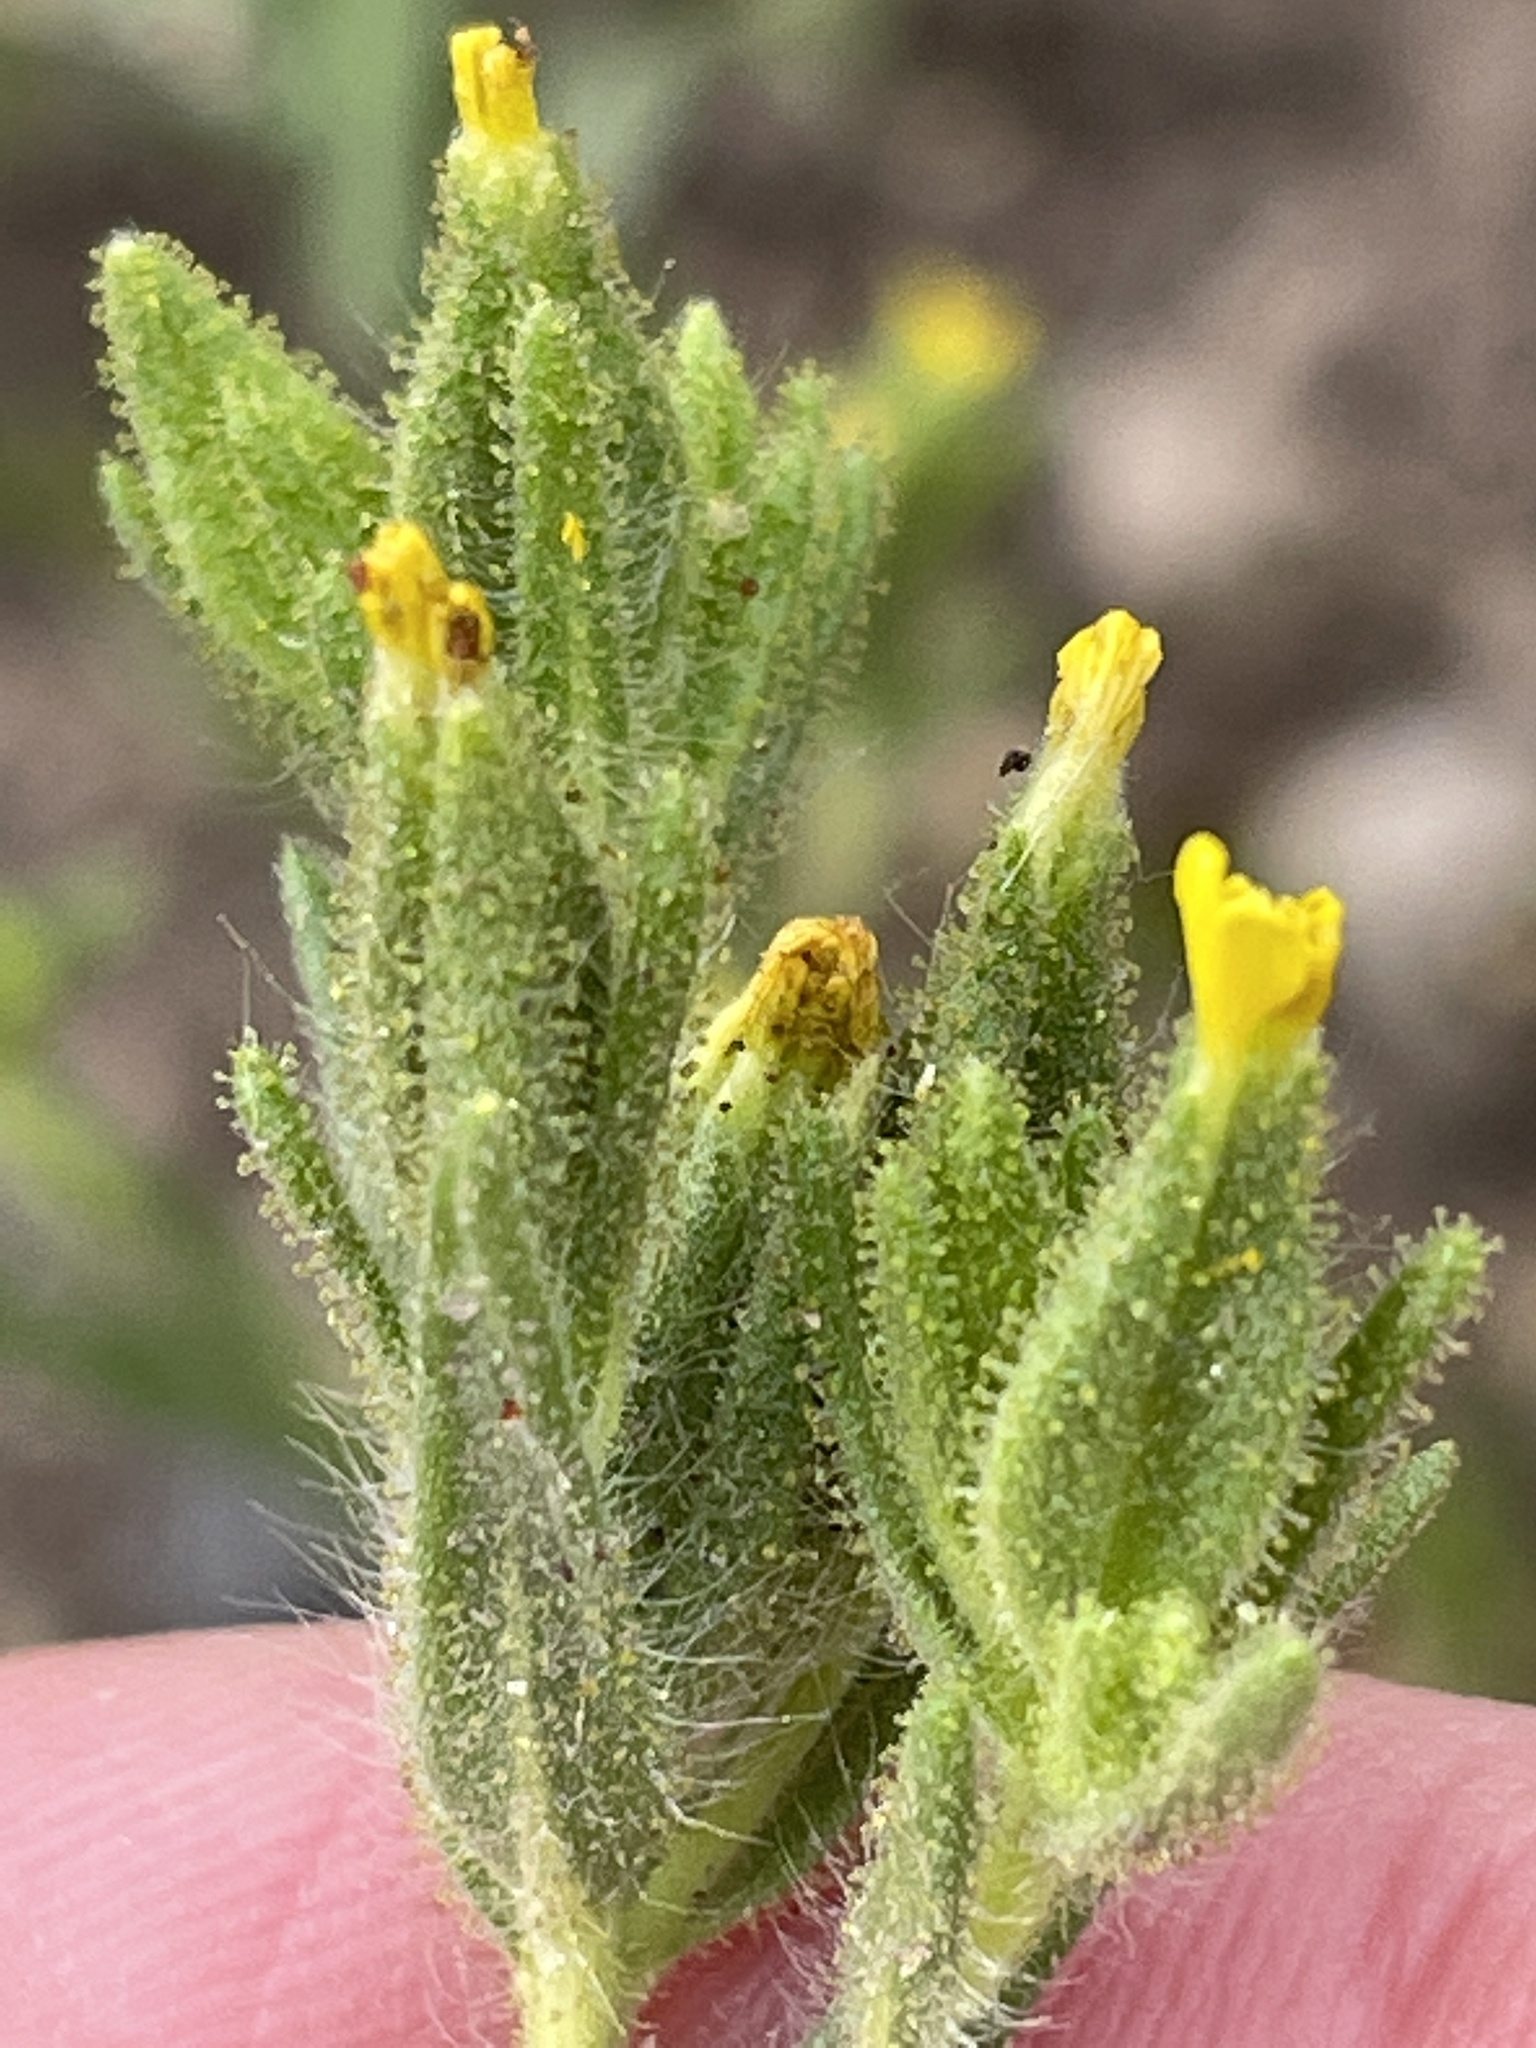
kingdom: Plantae
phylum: Tracheophyta
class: Magnoliopsida
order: Asterales
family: Asteraceae
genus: Madia
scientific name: Madia glomerata
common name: Mountain tarweed
